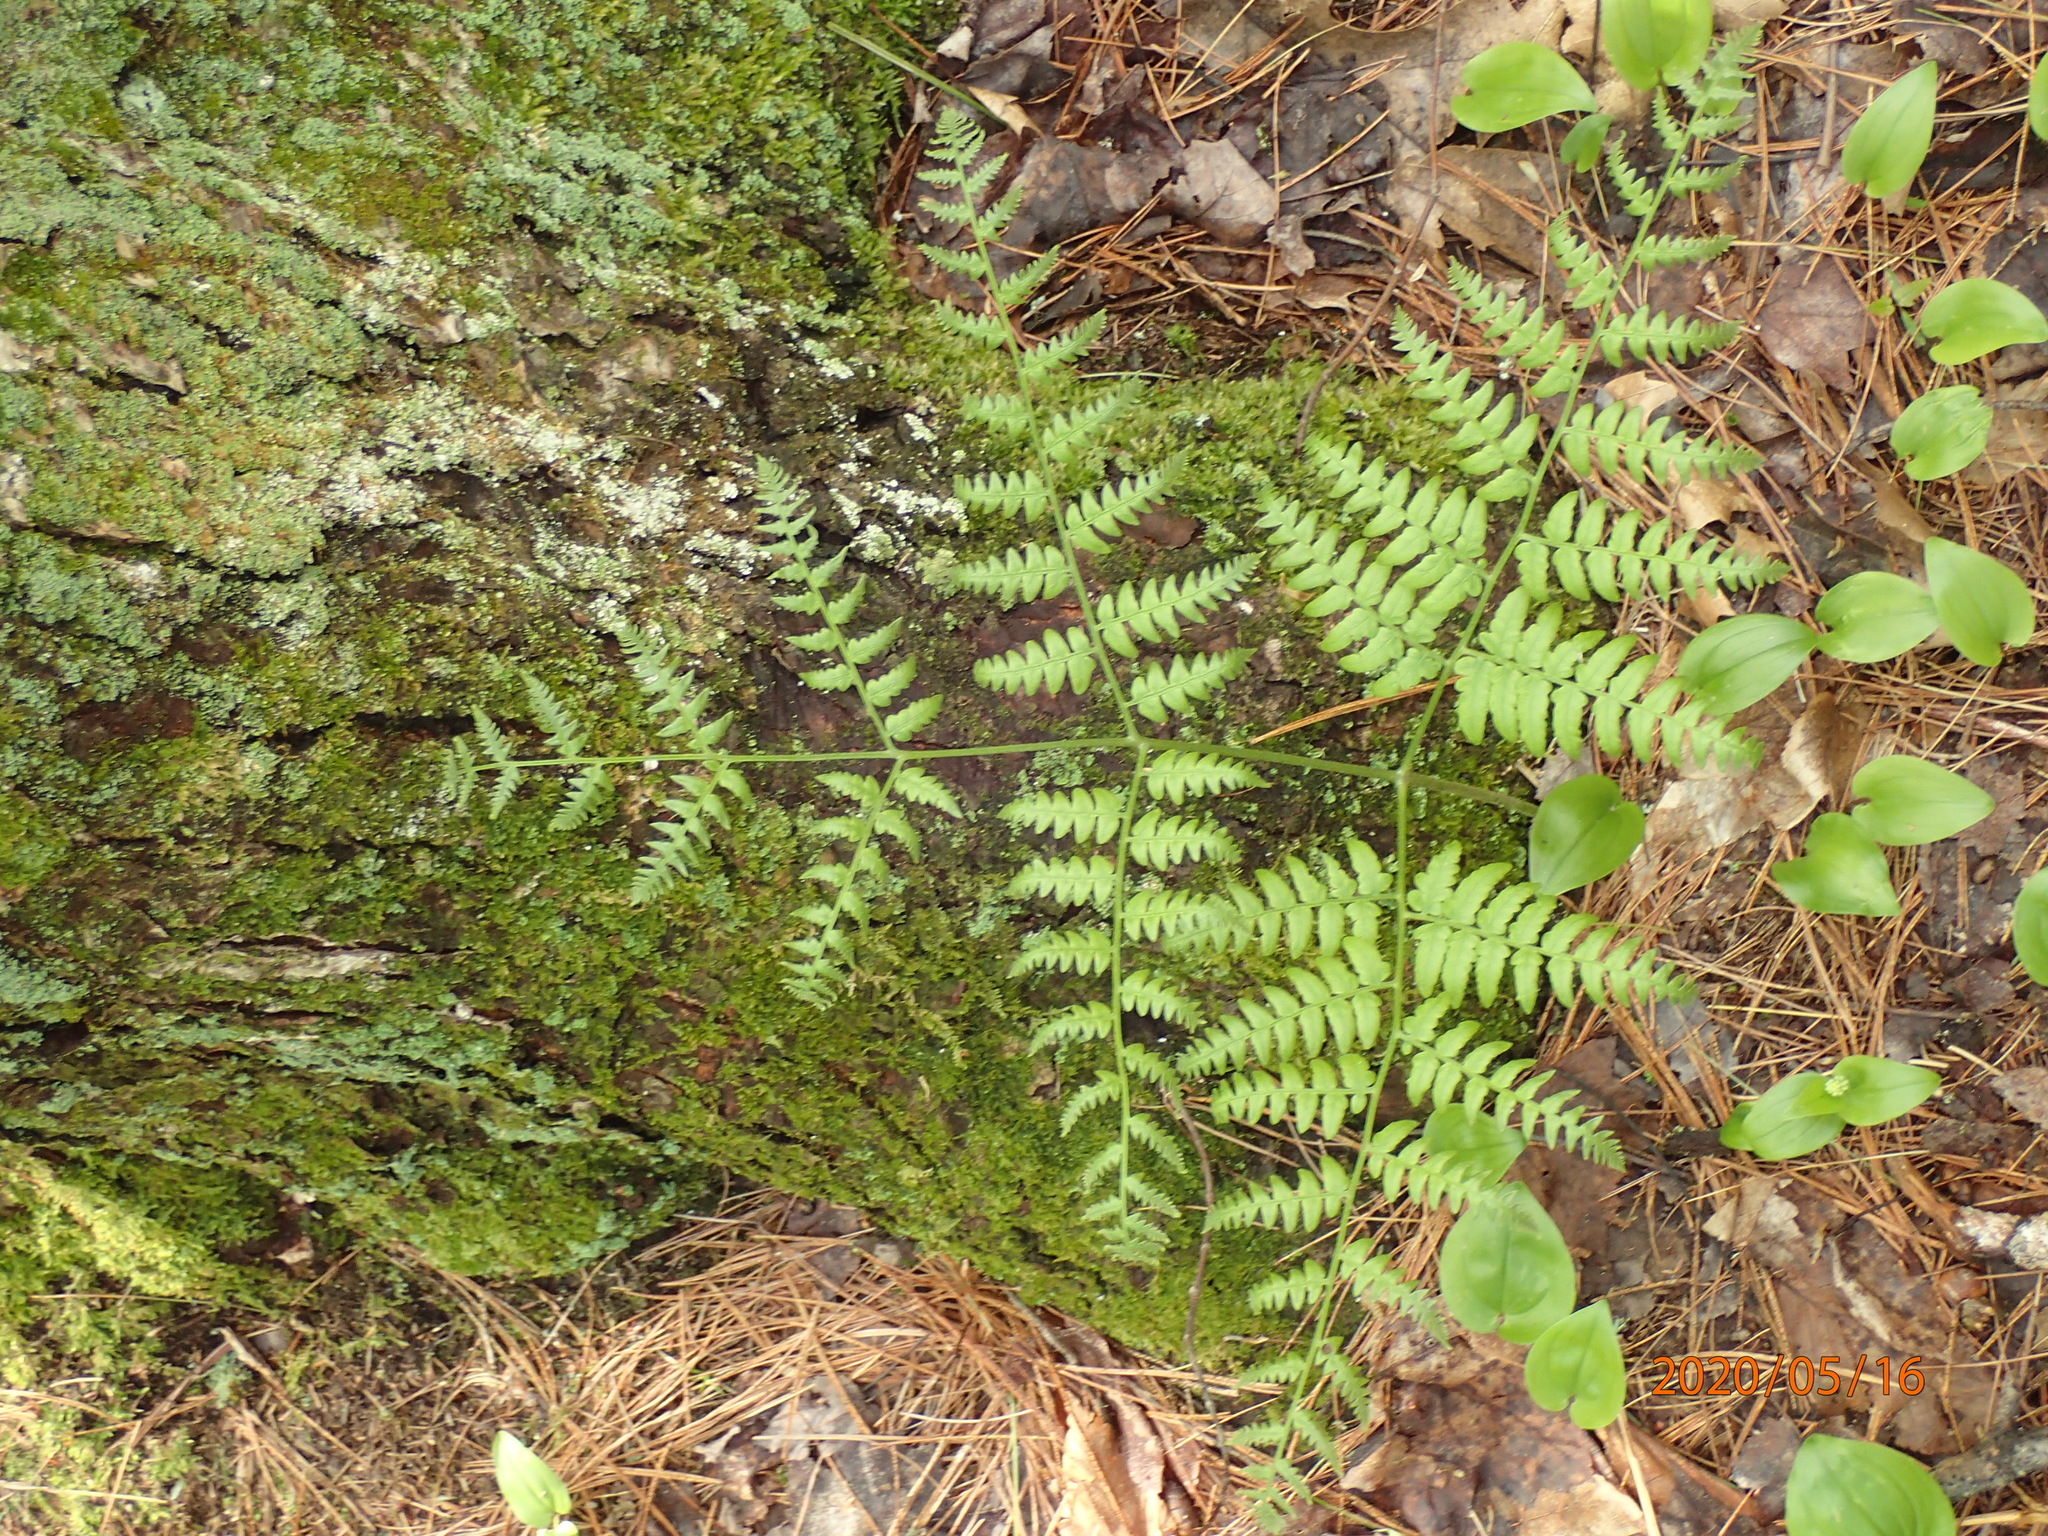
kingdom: Plantae
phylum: Tracheophyta
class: Polypodiopsida
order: Polypodiales
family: Dennstaedtiaceae
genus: Pteridium
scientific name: Pteridium aquilinum
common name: Bracken
